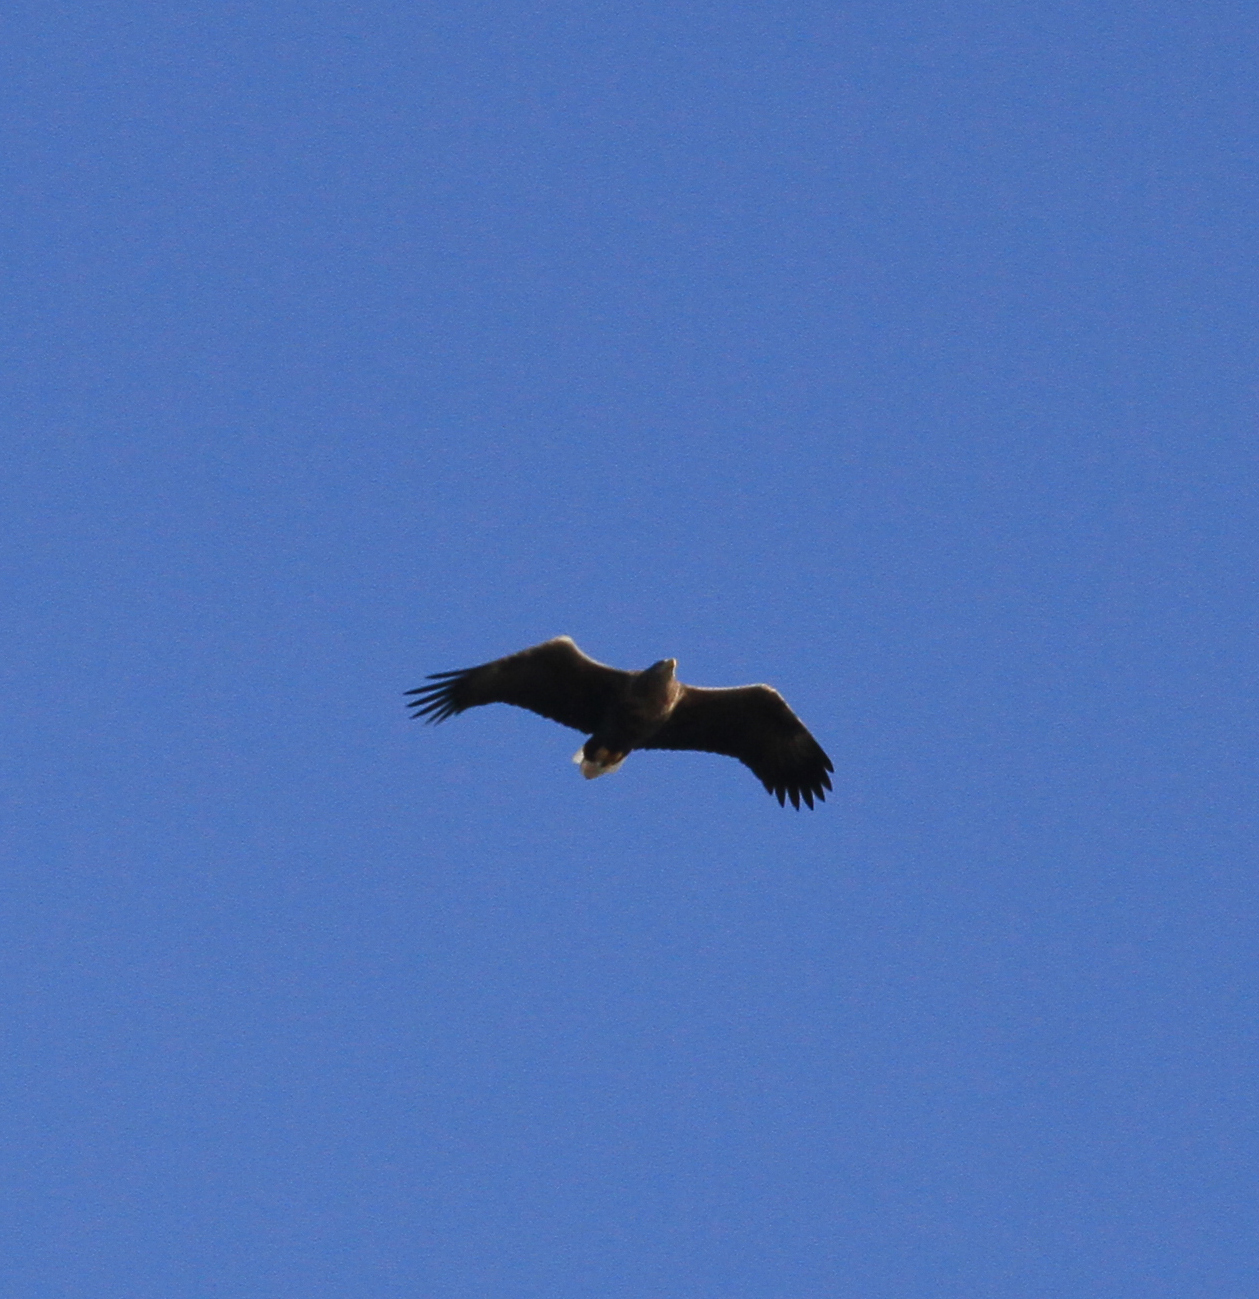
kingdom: Animalia
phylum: Chordata
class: Aves
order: Accipitriformes
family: Accipitridae
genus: Haliaeetus
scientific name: Haliaeetus albicilla
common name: White-tailed eagle
